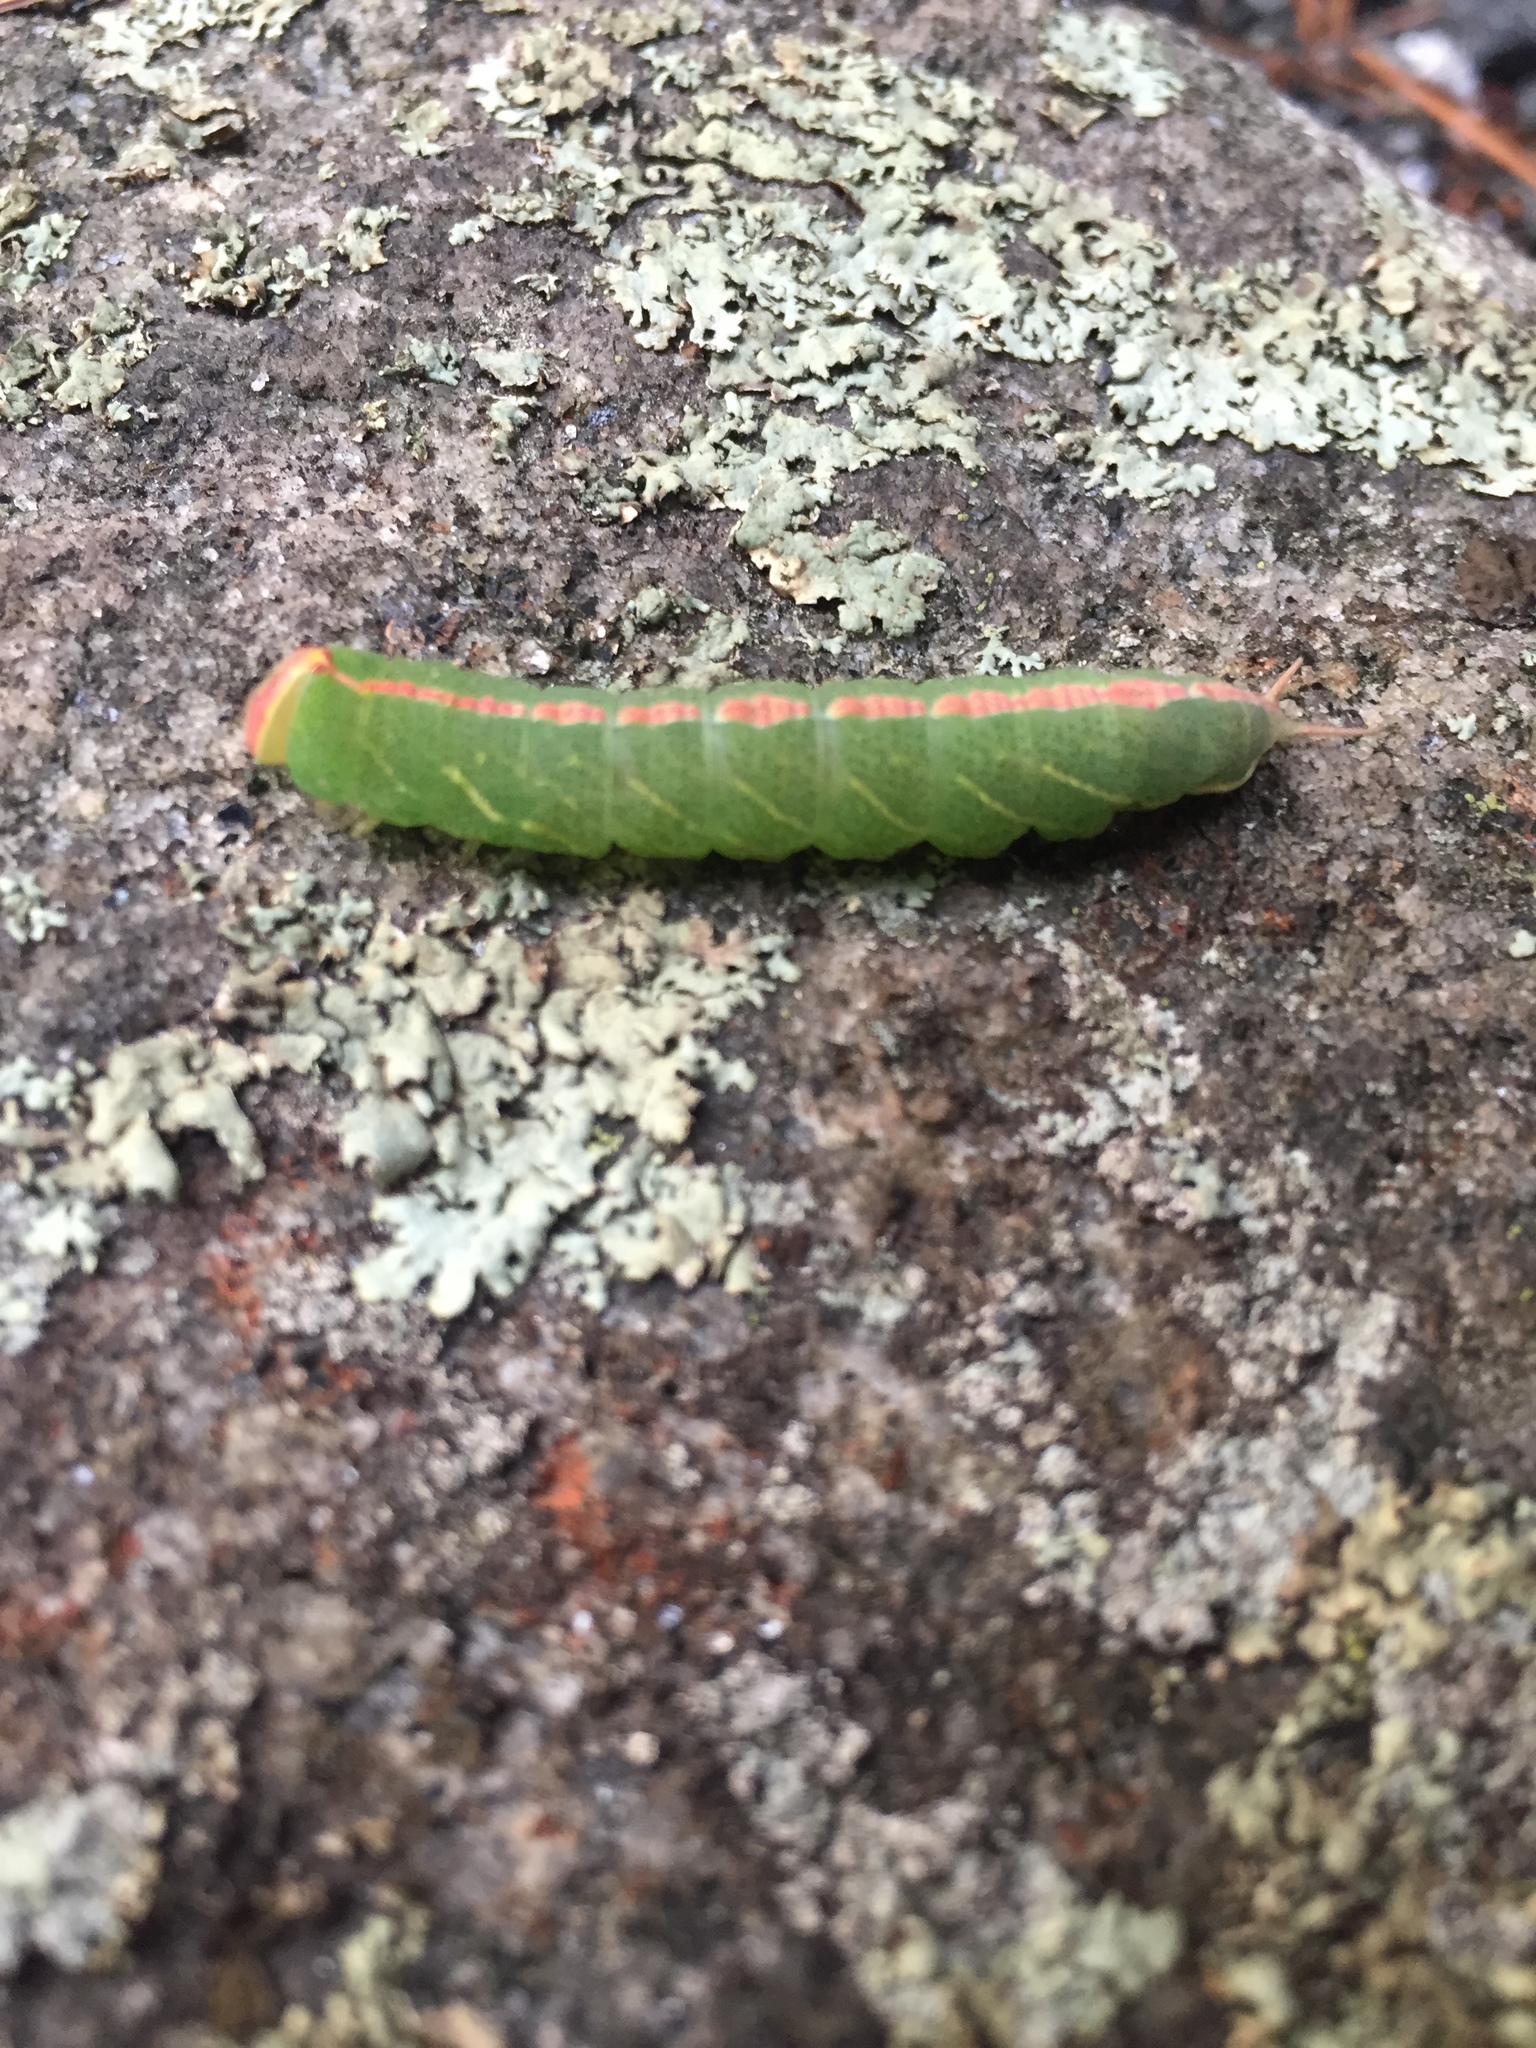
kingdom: Animalia
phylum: Arthropoda
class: Insecta
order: Lepidoptera
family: Notodontidae
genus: Macrurocampa
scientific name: Macrurocampa marthesia
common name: Mottled prominent
